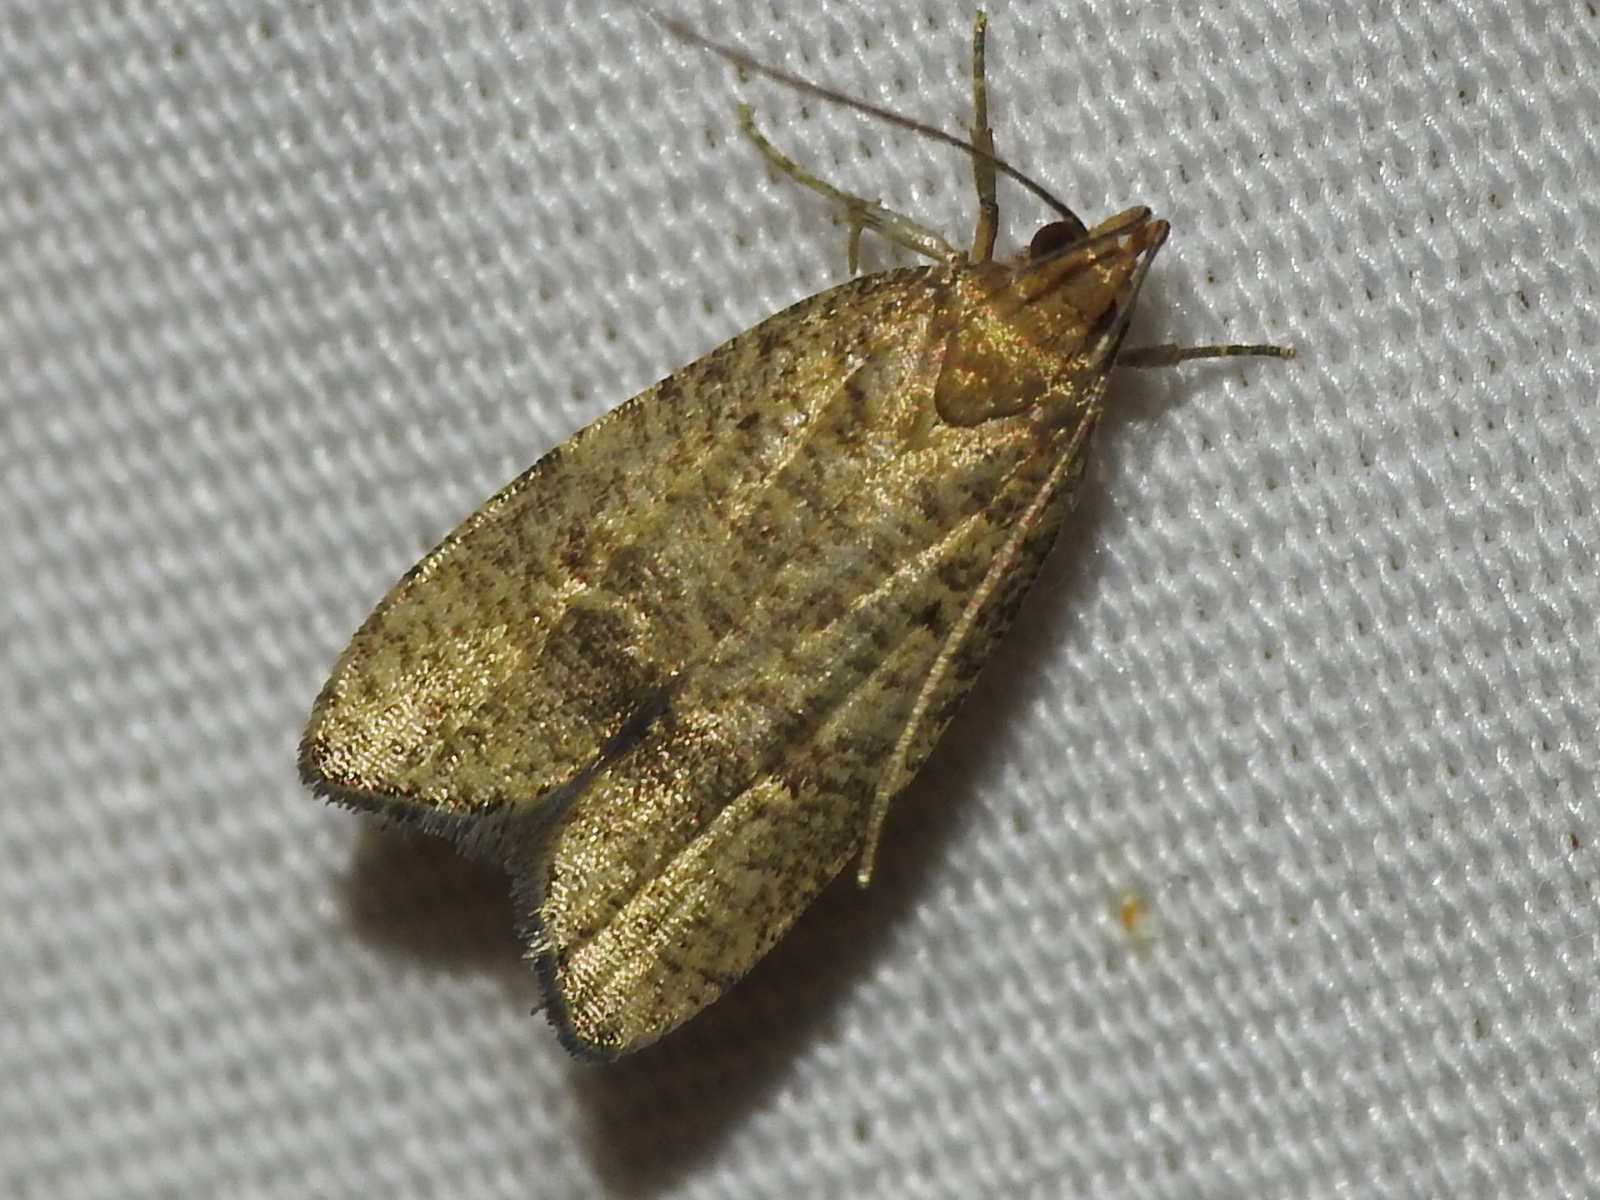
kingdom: Animalia
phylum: Arthropoda
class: Insecta
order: Lepidoptera
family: Depressariidae
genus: Psilocorsis
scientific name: Psilocorsis quercicella
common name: Oak leaftier moth
